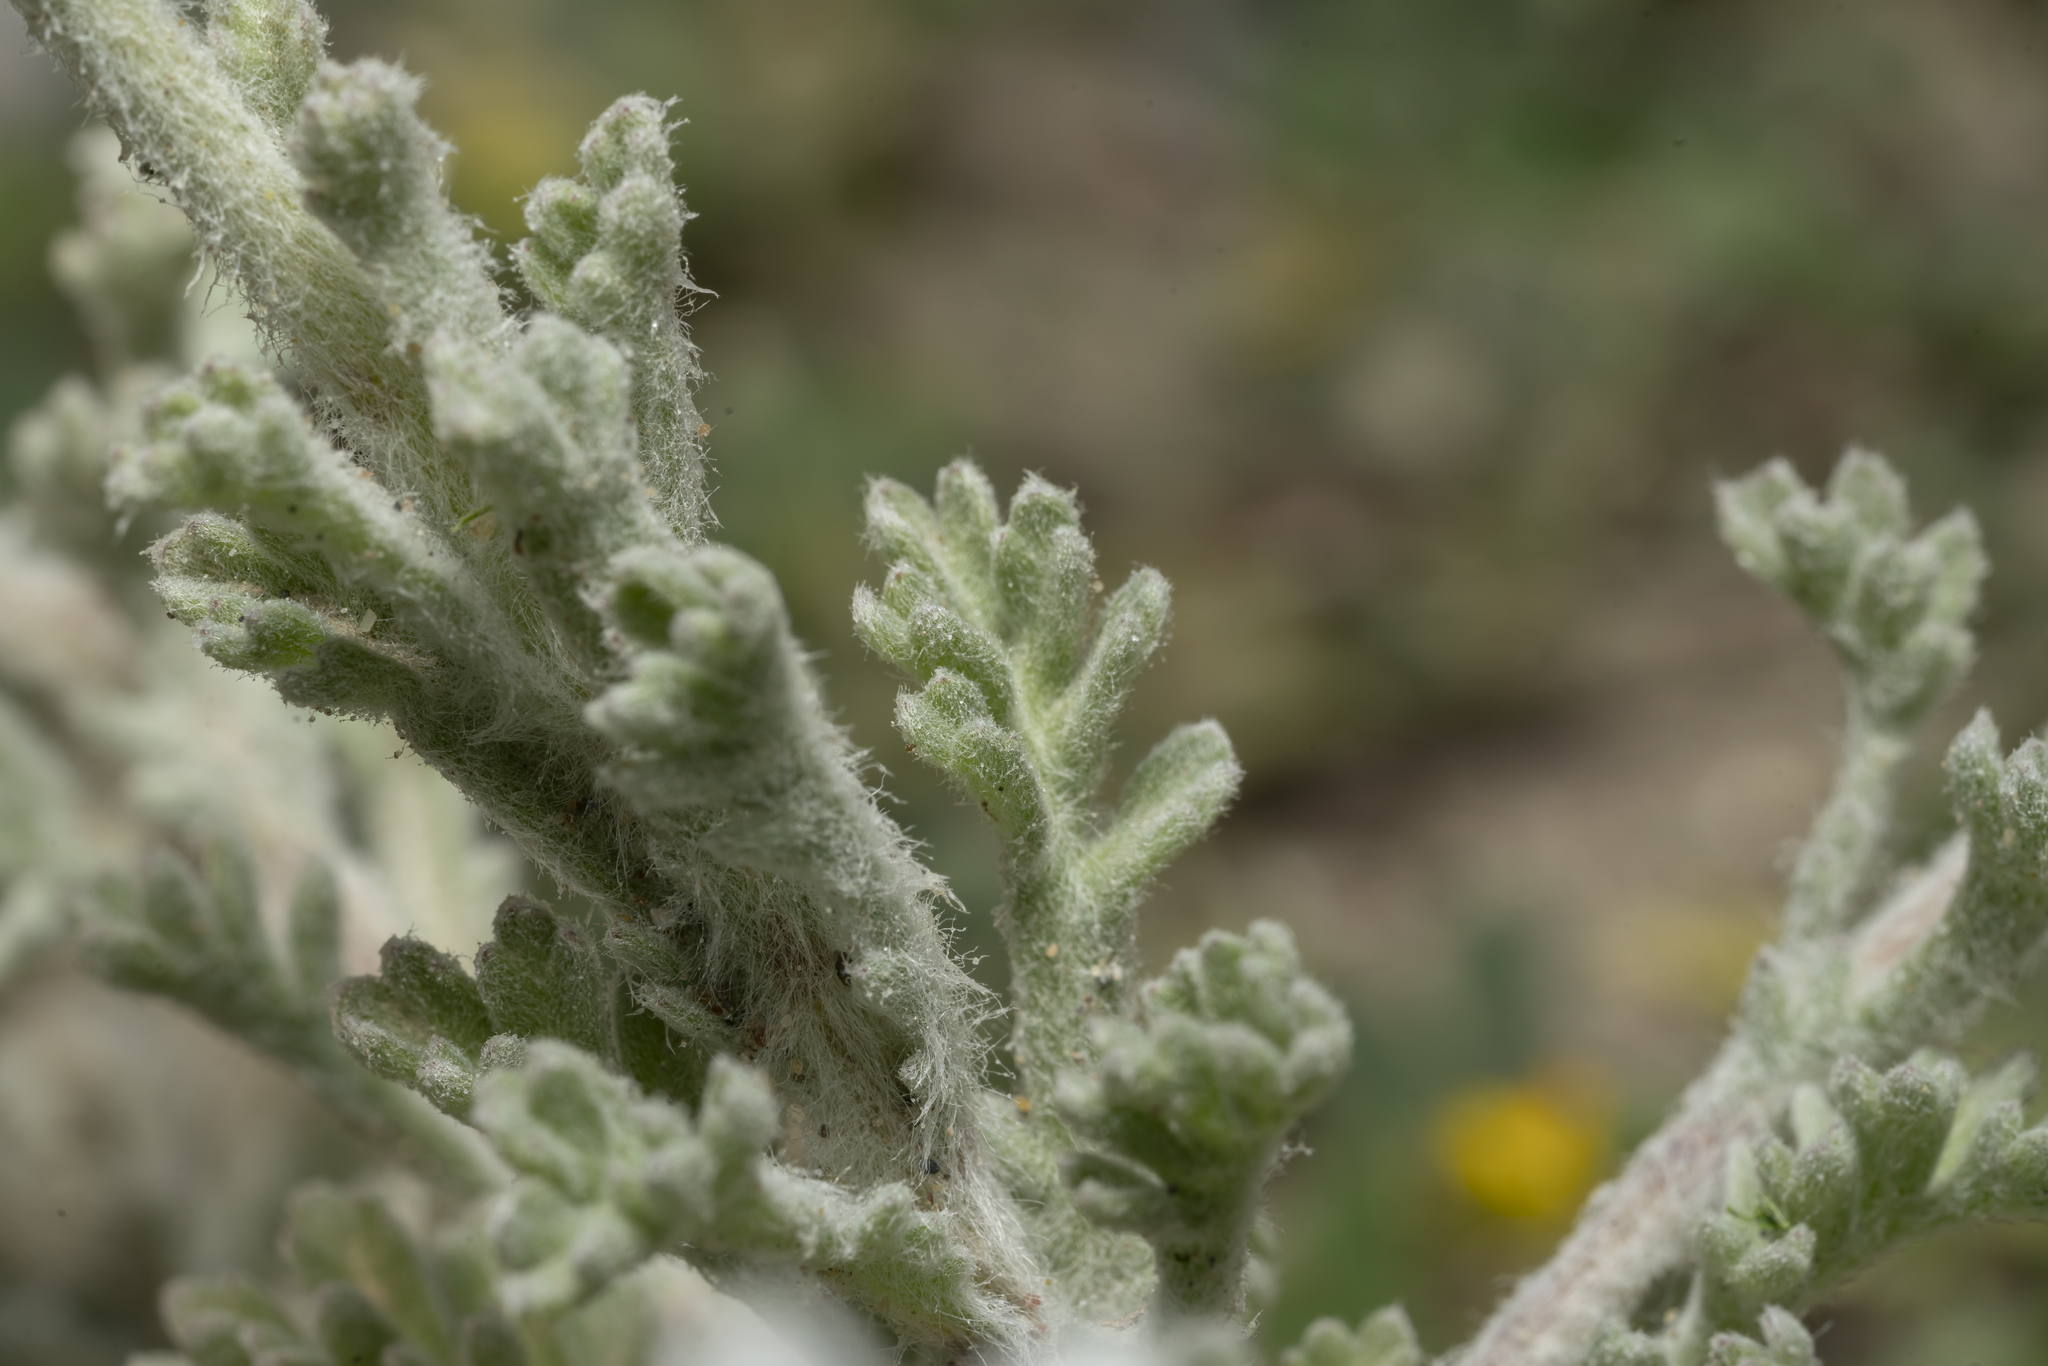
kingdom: Plantae
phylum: Tracheophyta
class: Magnoliopsida
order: Asterales
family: Asteraceae
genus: Anthemis
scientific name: Anthemis tomentosa
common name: Woolly chamomile
